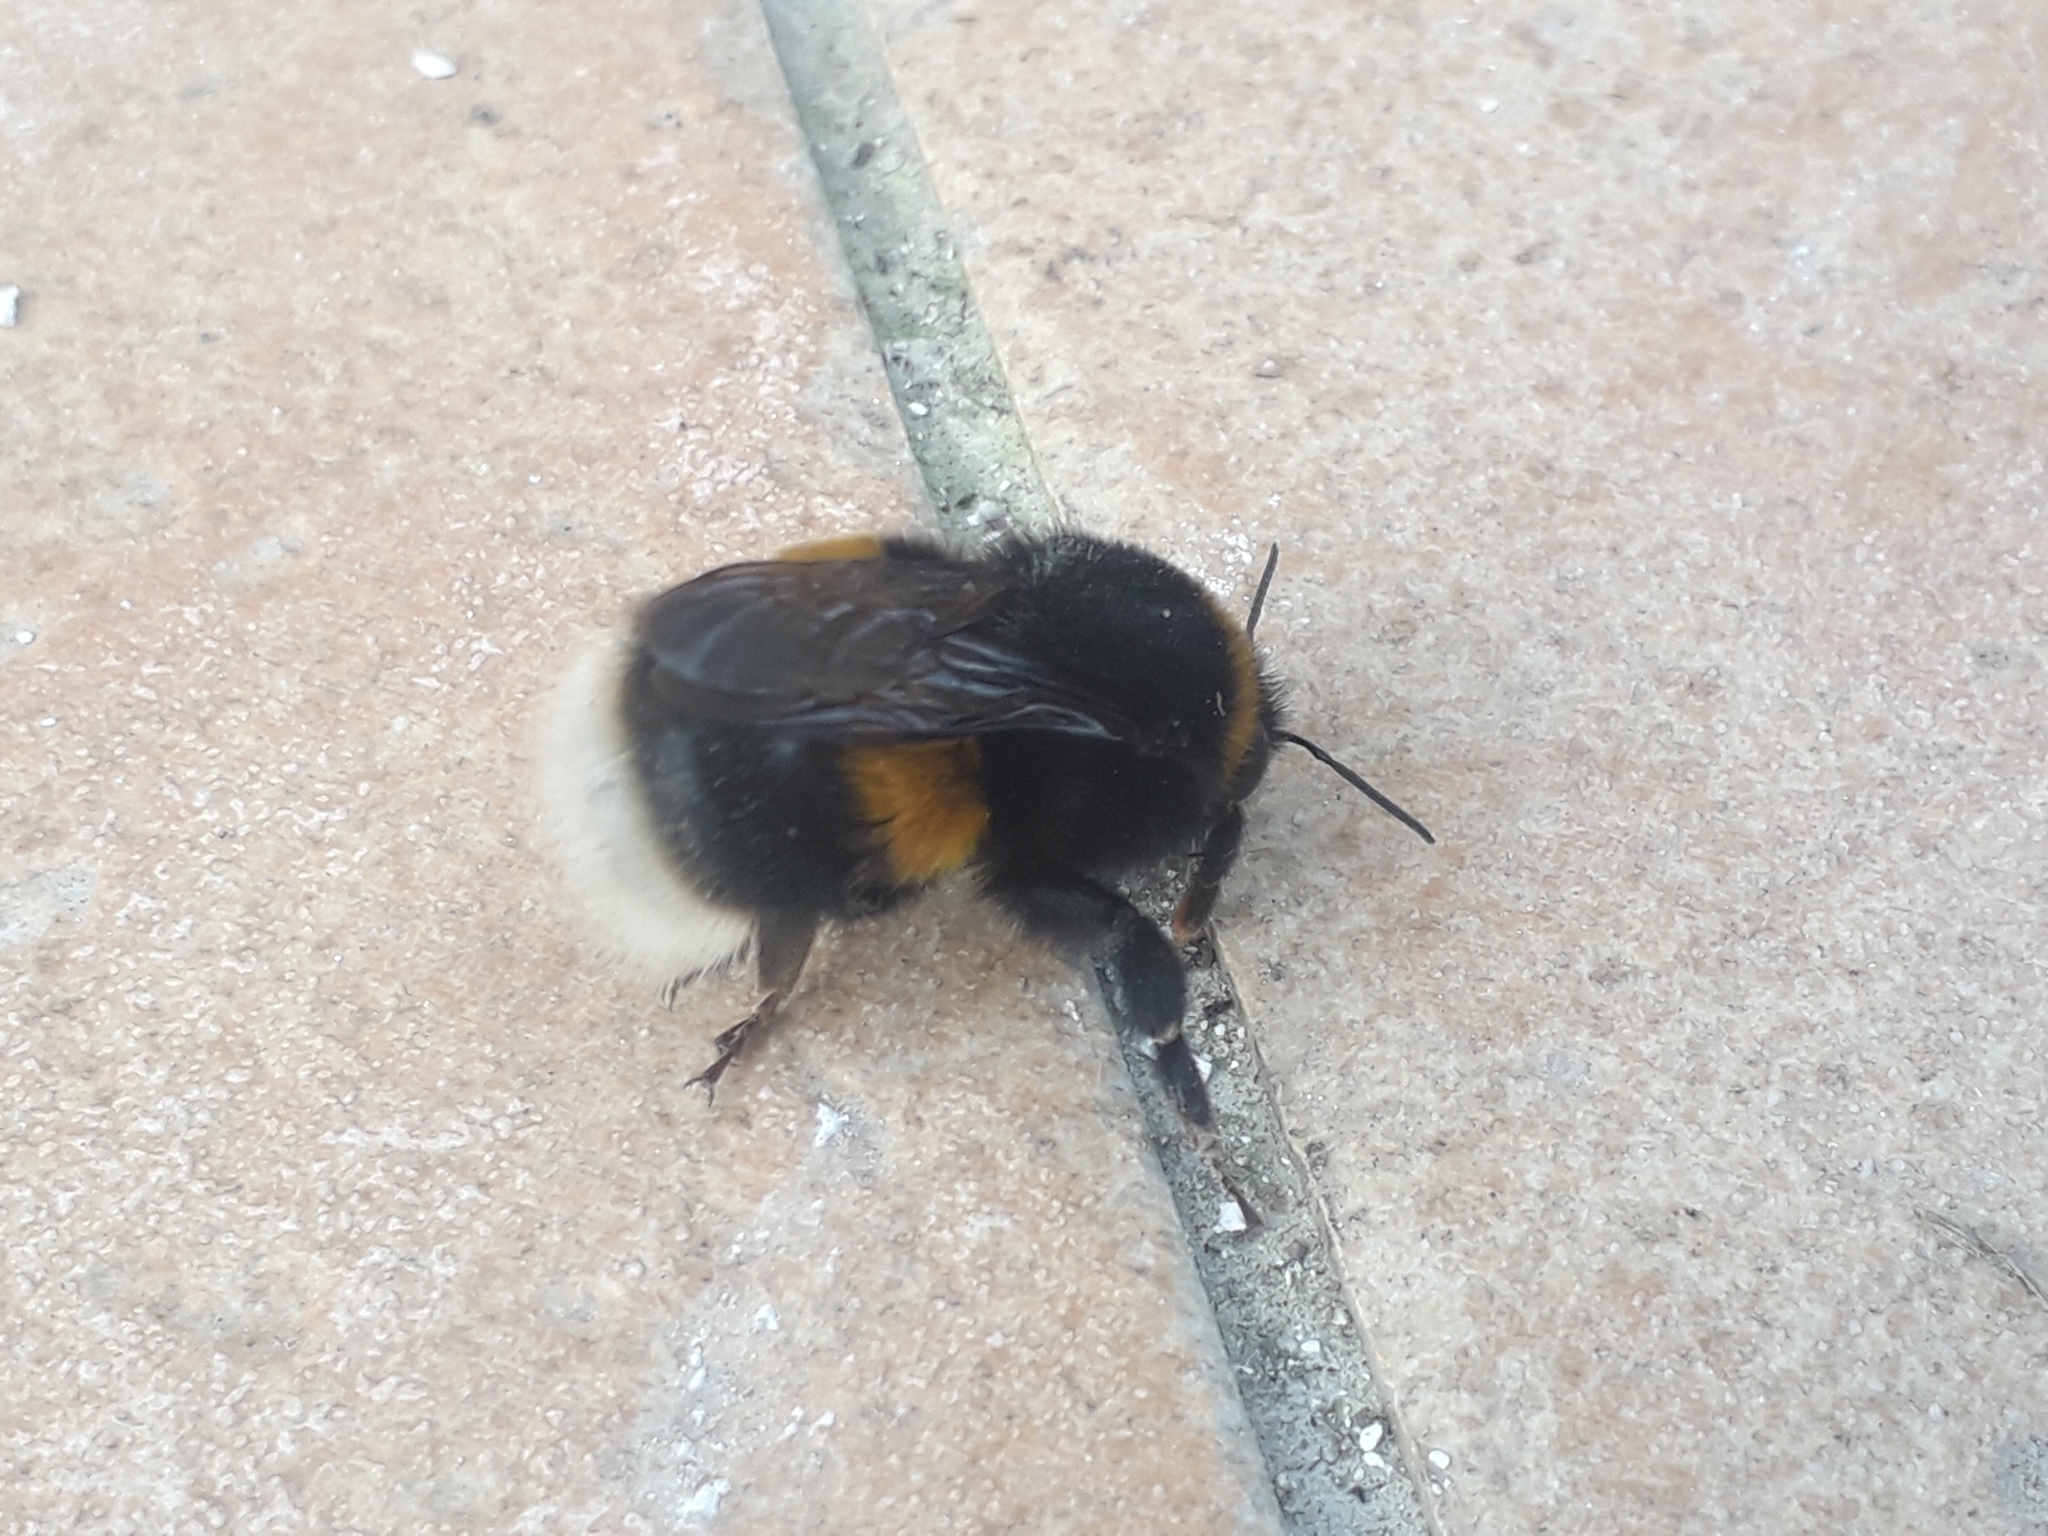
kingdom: Animalia
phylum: Arthropoda
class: Insecta
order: Hymenoptera
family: Apidae
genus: Bombus
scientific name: Bombus
